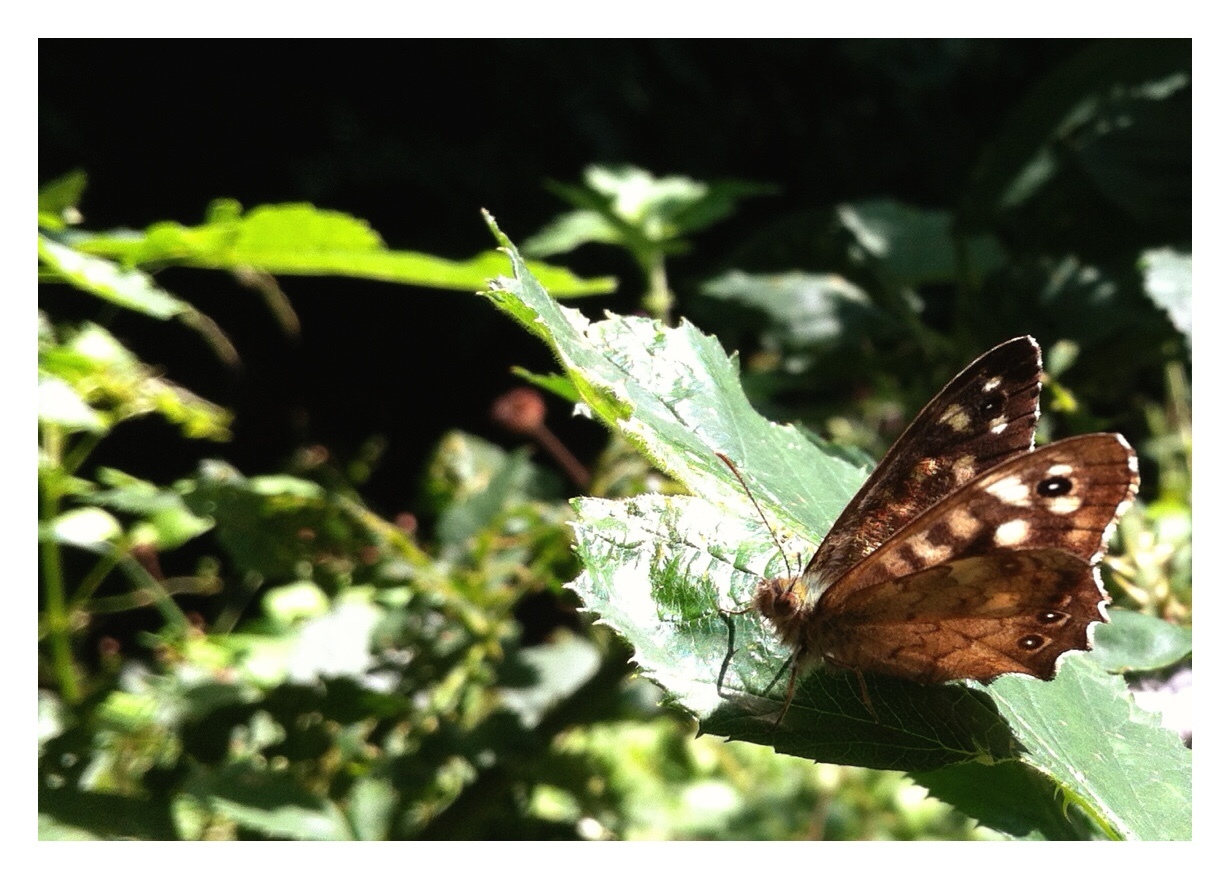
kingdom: Animalia
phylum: Arthropoda
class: Insecta
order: Lepidoptera
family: Nymphalidae
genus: Pararge
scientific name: Pararge aegeria
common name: Speckled wood
